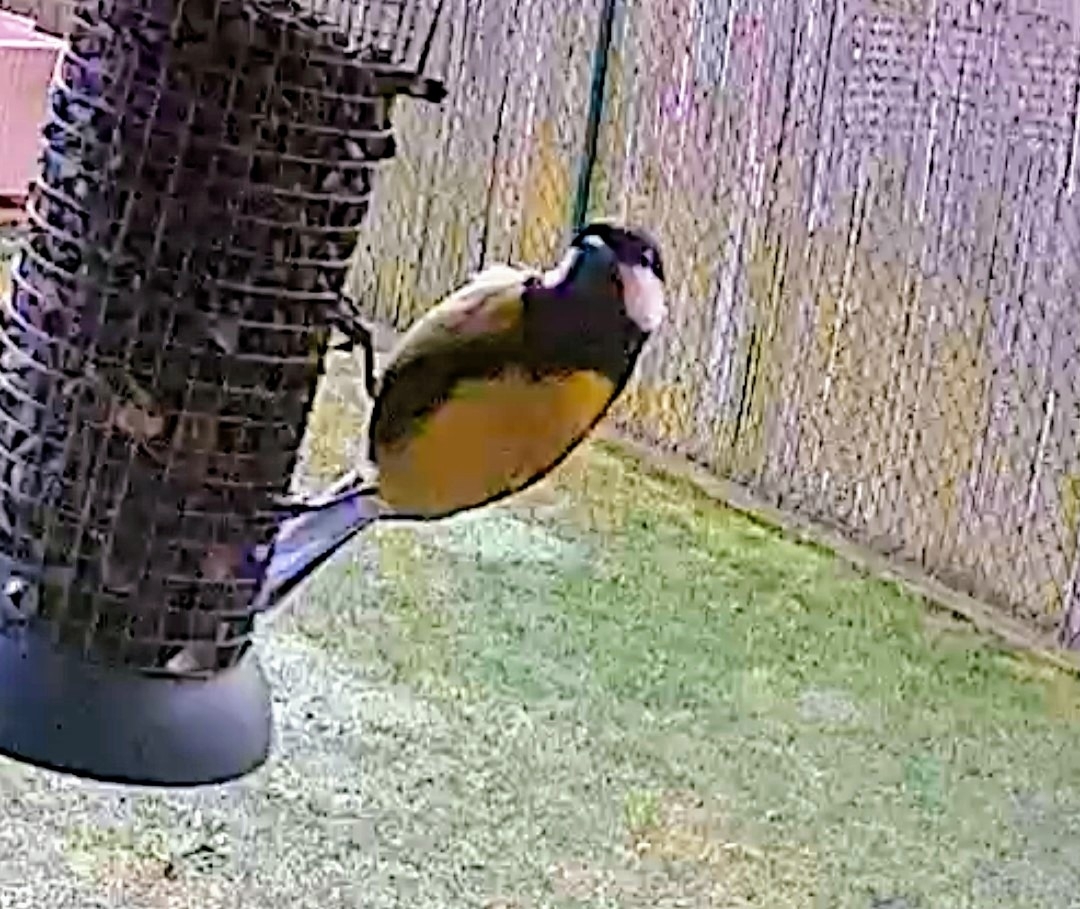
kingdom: Animalia
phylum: Chordata
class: Aves
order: Passeriformes
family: Paridae
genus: Parus
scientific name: Parus major
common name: Great tit
